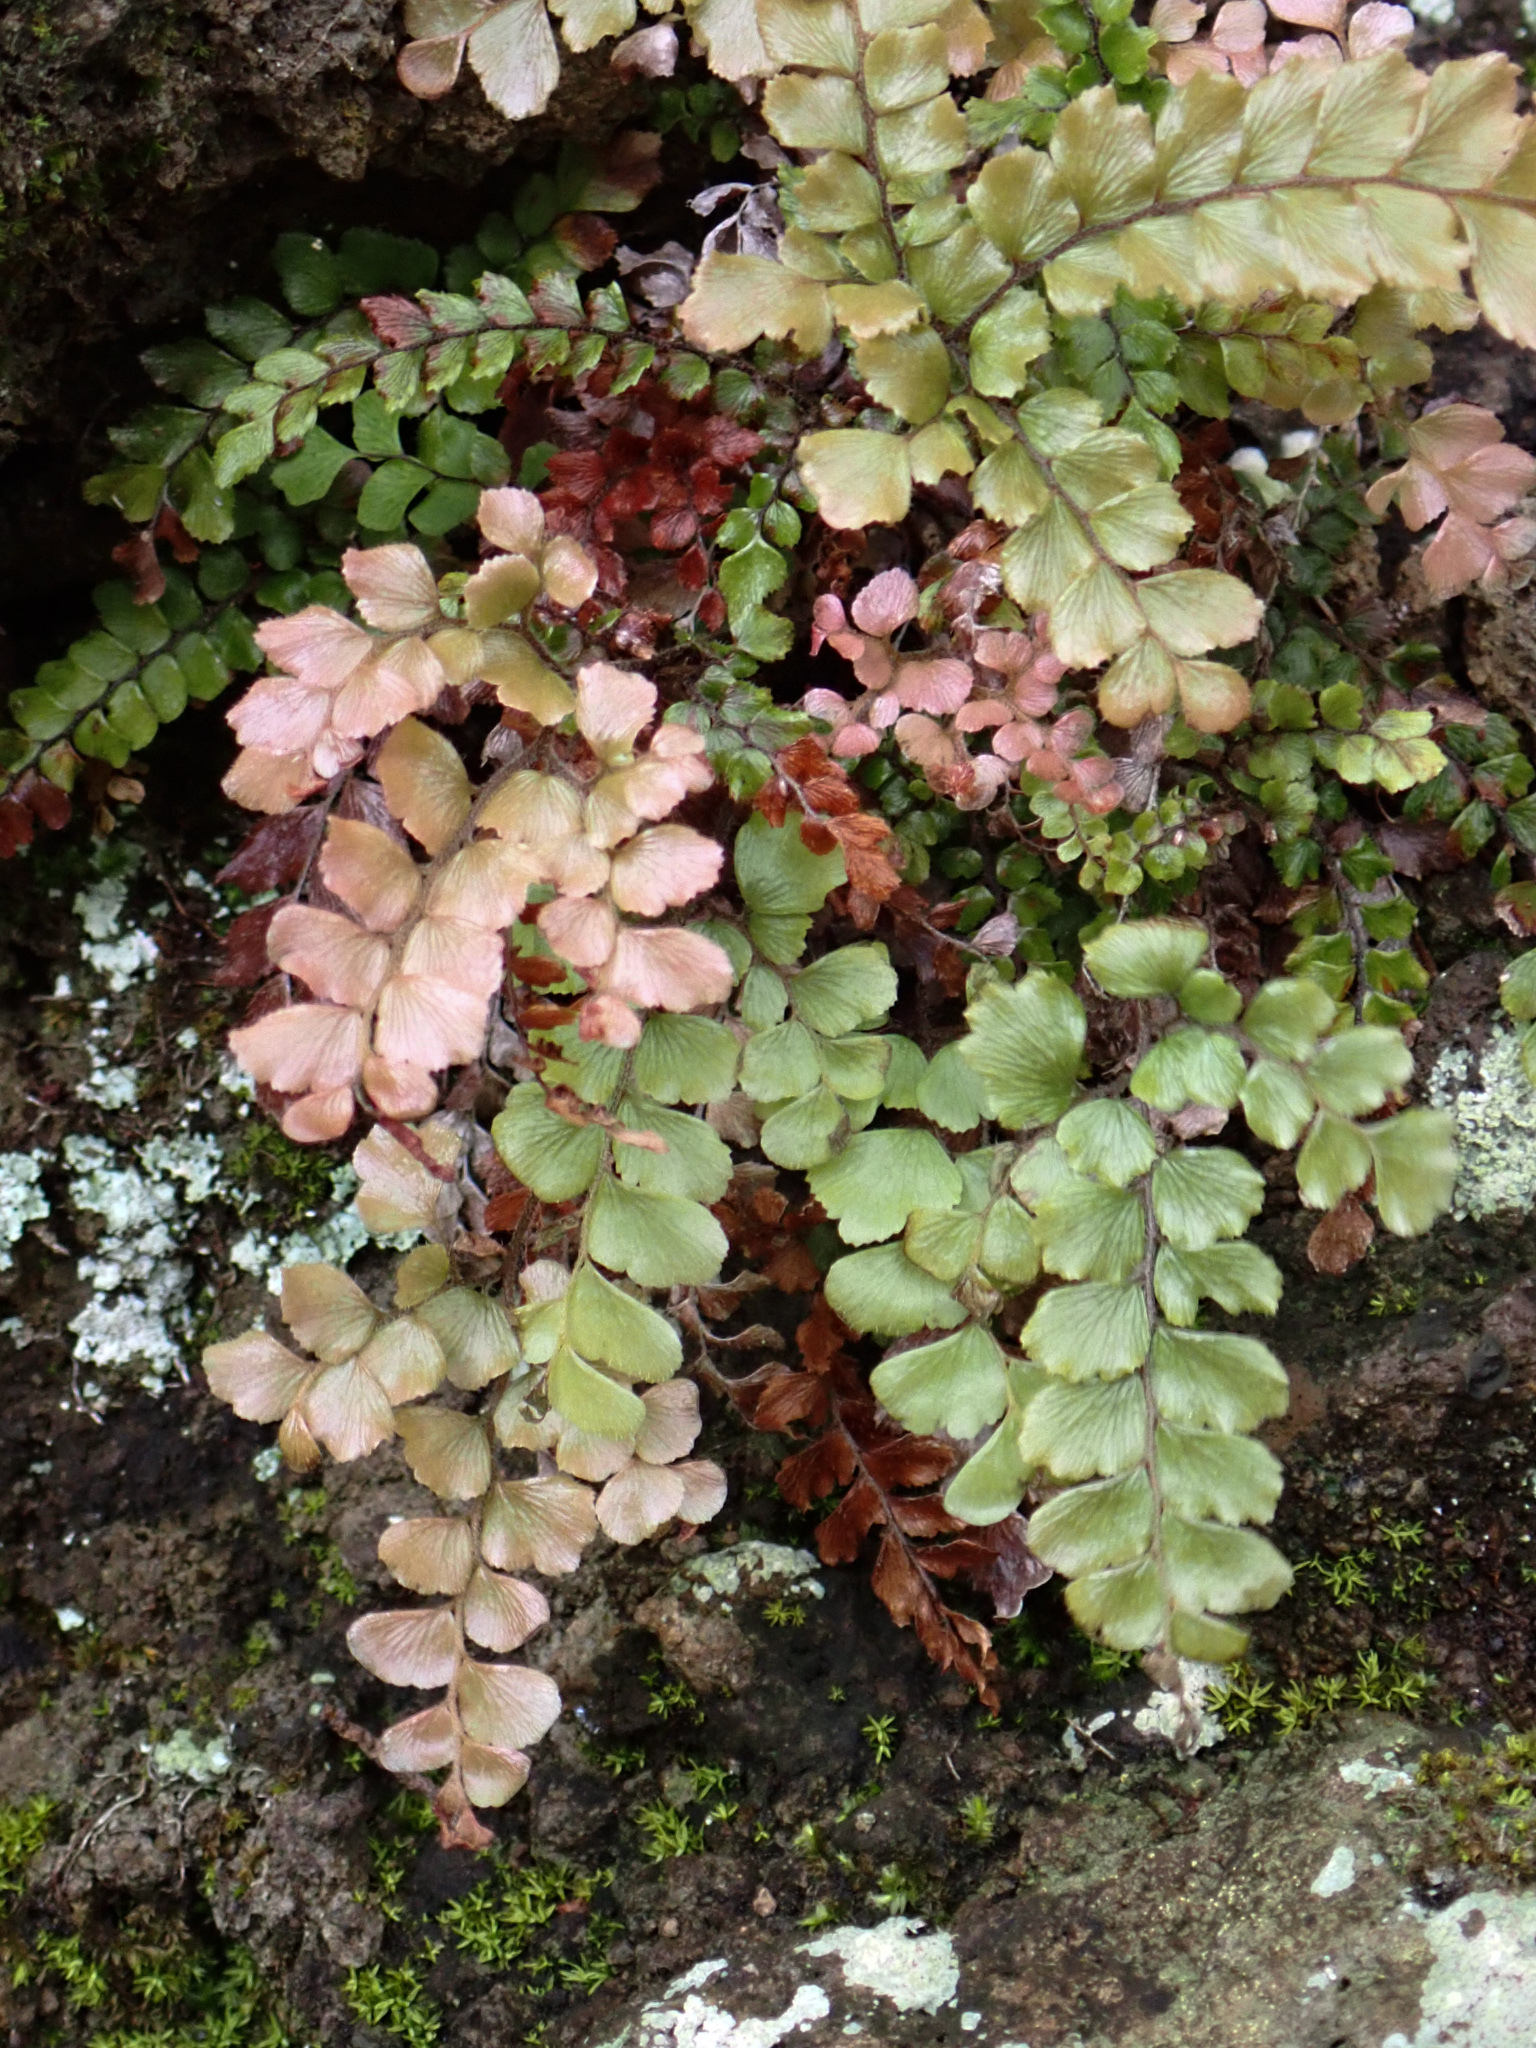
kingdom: Plantae
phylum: Tracheophyta
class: Polypodiopsida
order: Polypodiales
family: Pteridaceae
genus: Adiantum
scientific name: Adiantum hispidulum
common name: Rough maidenhair
